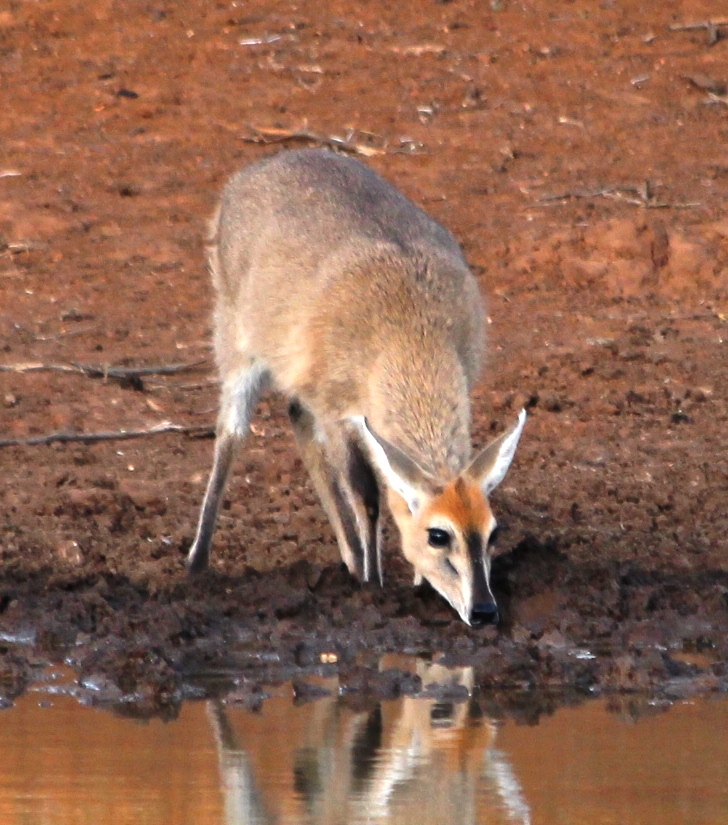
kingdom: Animalia
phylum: Chordata
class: Mammalia
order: Artiodactyla
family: Bovidae
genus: Sylvicapra
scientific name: Sylvicapra grimmia
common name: Bush duiker
